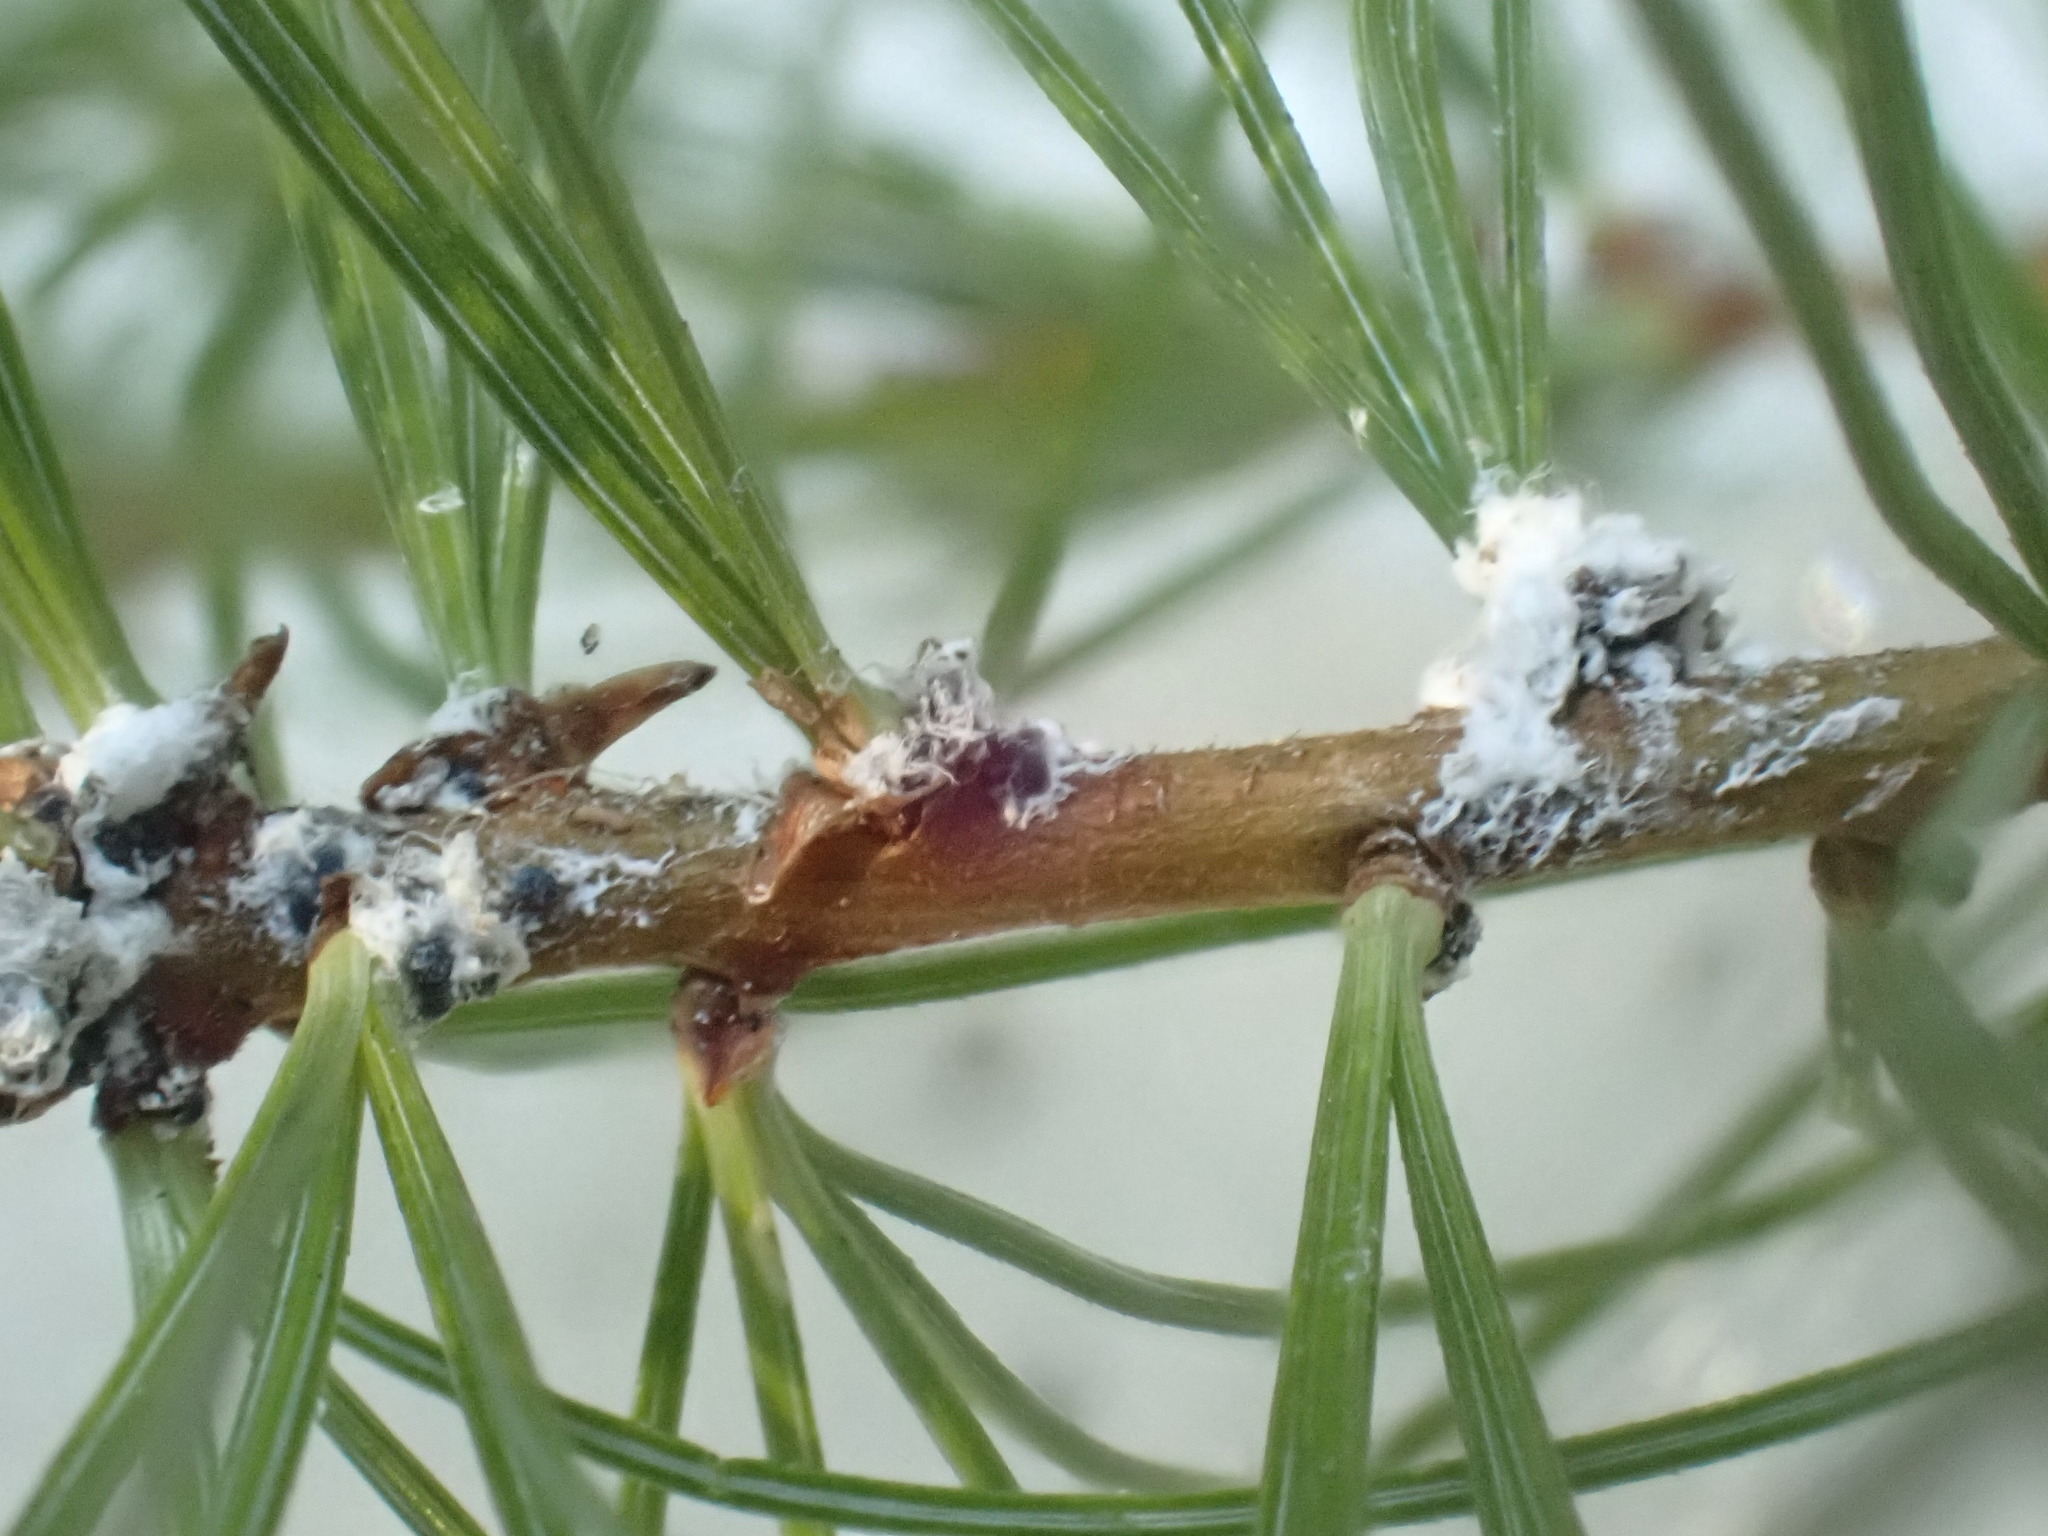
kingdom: Animalia
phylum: Arthropoda
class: Insecta
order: Hemiptera
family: Adelgidae
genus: Pineus
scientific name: Pineus pini
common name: Eurasian pine adelgid
